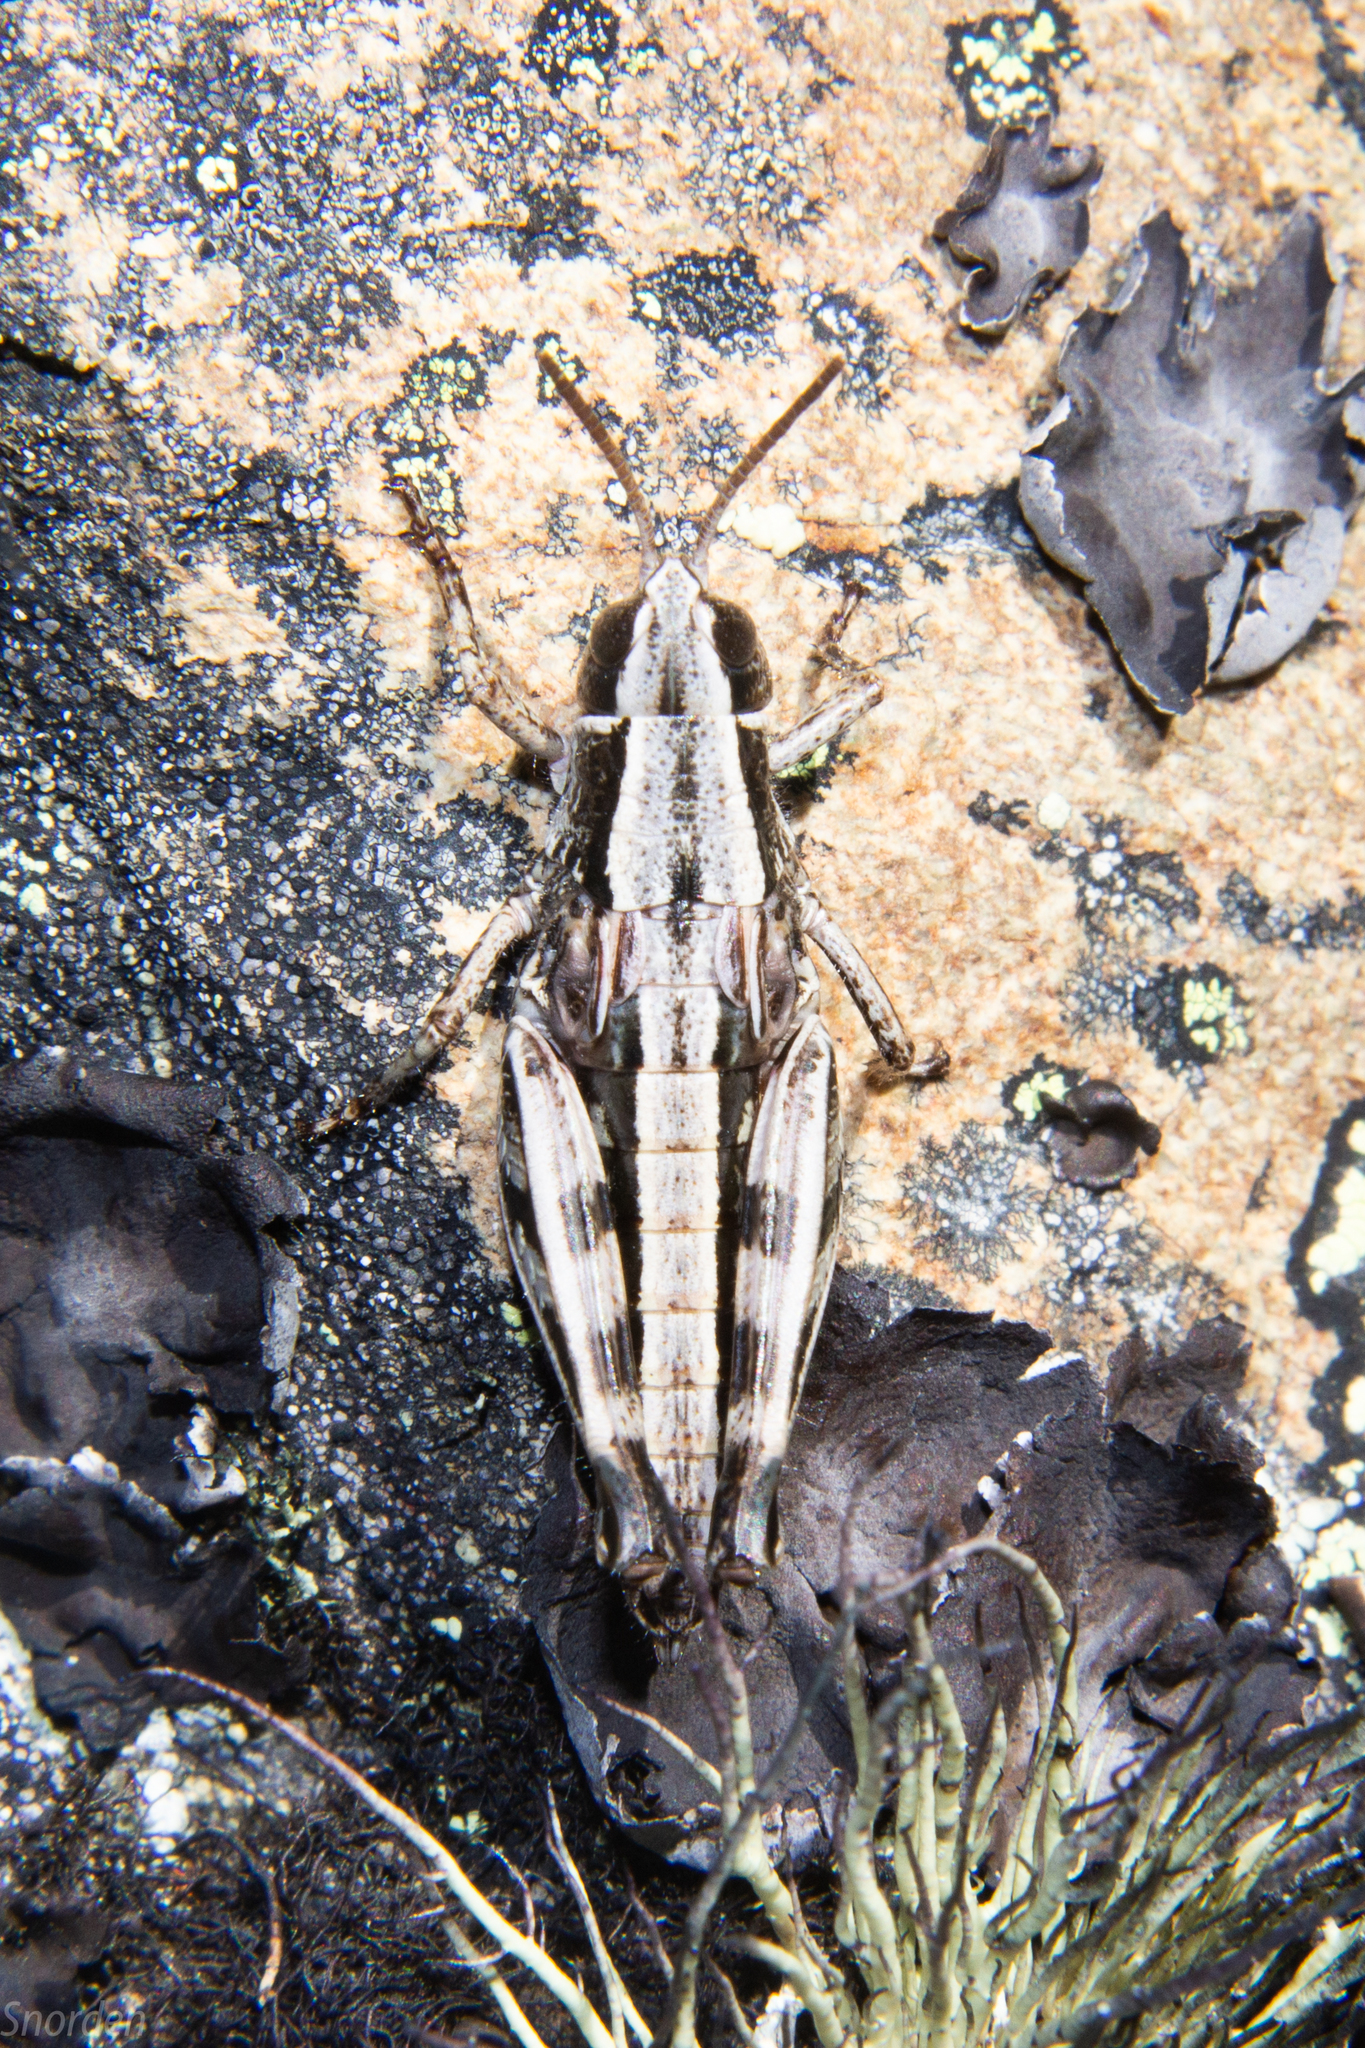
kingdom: Animalia
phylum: Arthropoda
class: Insecta
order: Orthoptera
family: Acrididae
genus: Sigaus
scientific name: Sigaus australis
